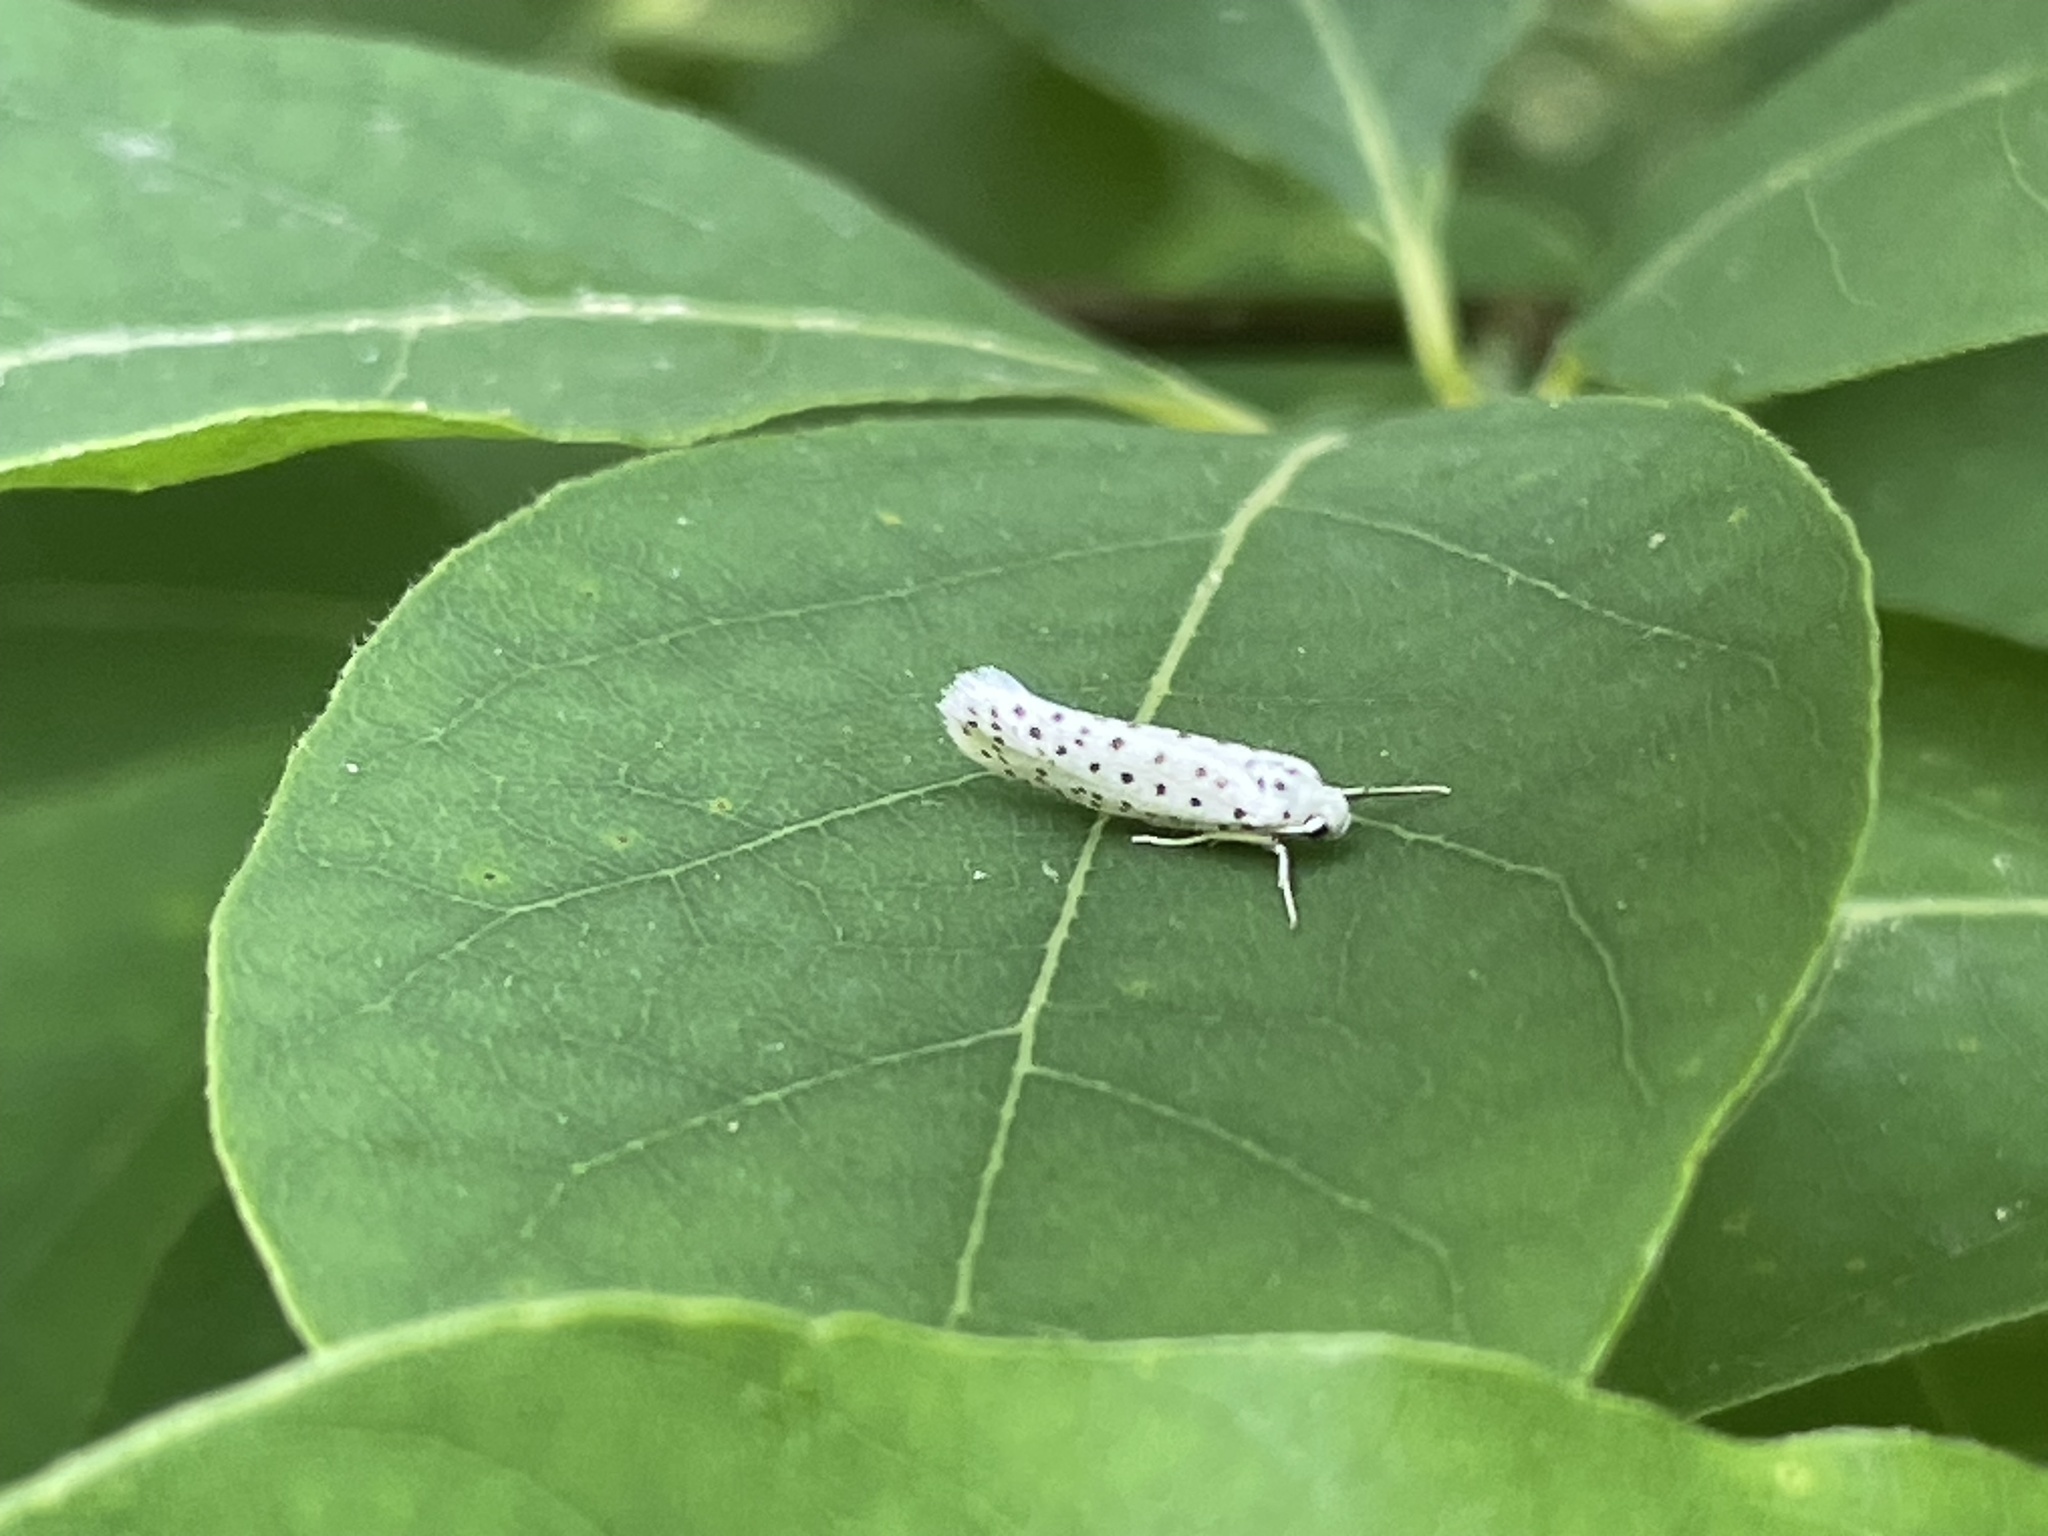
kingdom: Animalia
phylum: Arthropoda
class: Insecta
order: Lepidoptera
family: Yponomeutidae
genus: Yponomeuta
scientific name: Yponomeuta multipunctella
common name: American ermine moth
